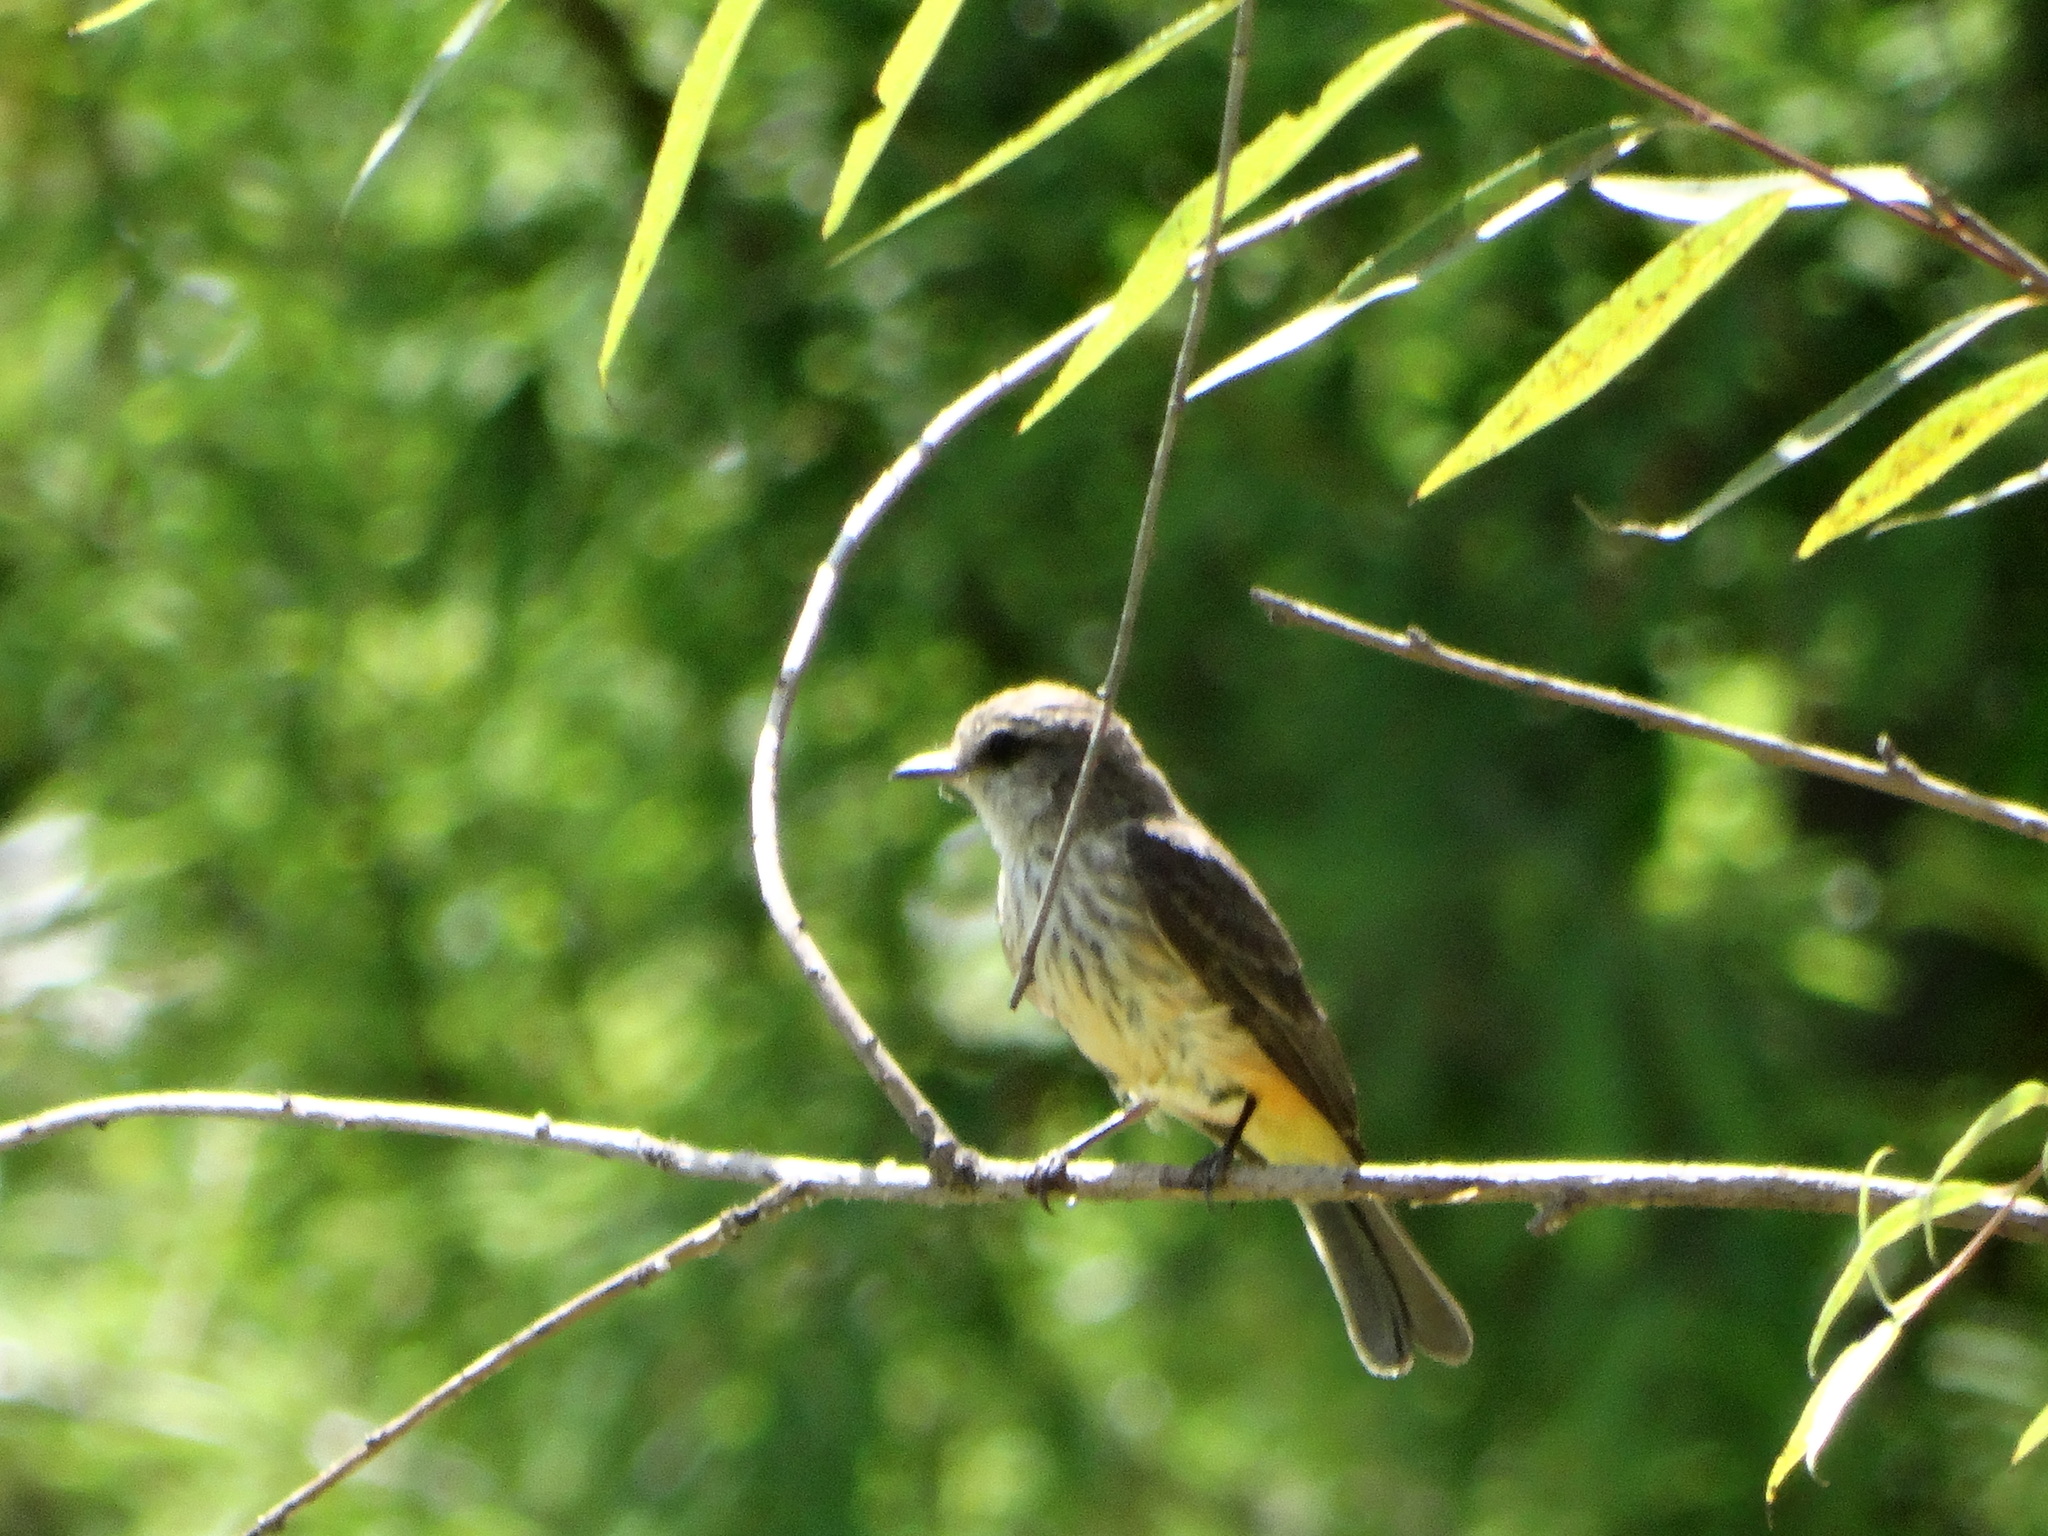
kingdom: Animalia
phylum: Chordata
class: Aves
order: Passeriformes
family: Tyrannidae
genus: Pyrocephalus
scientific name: Pyrocephalus rubinus
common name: Vermilion flycatcher
